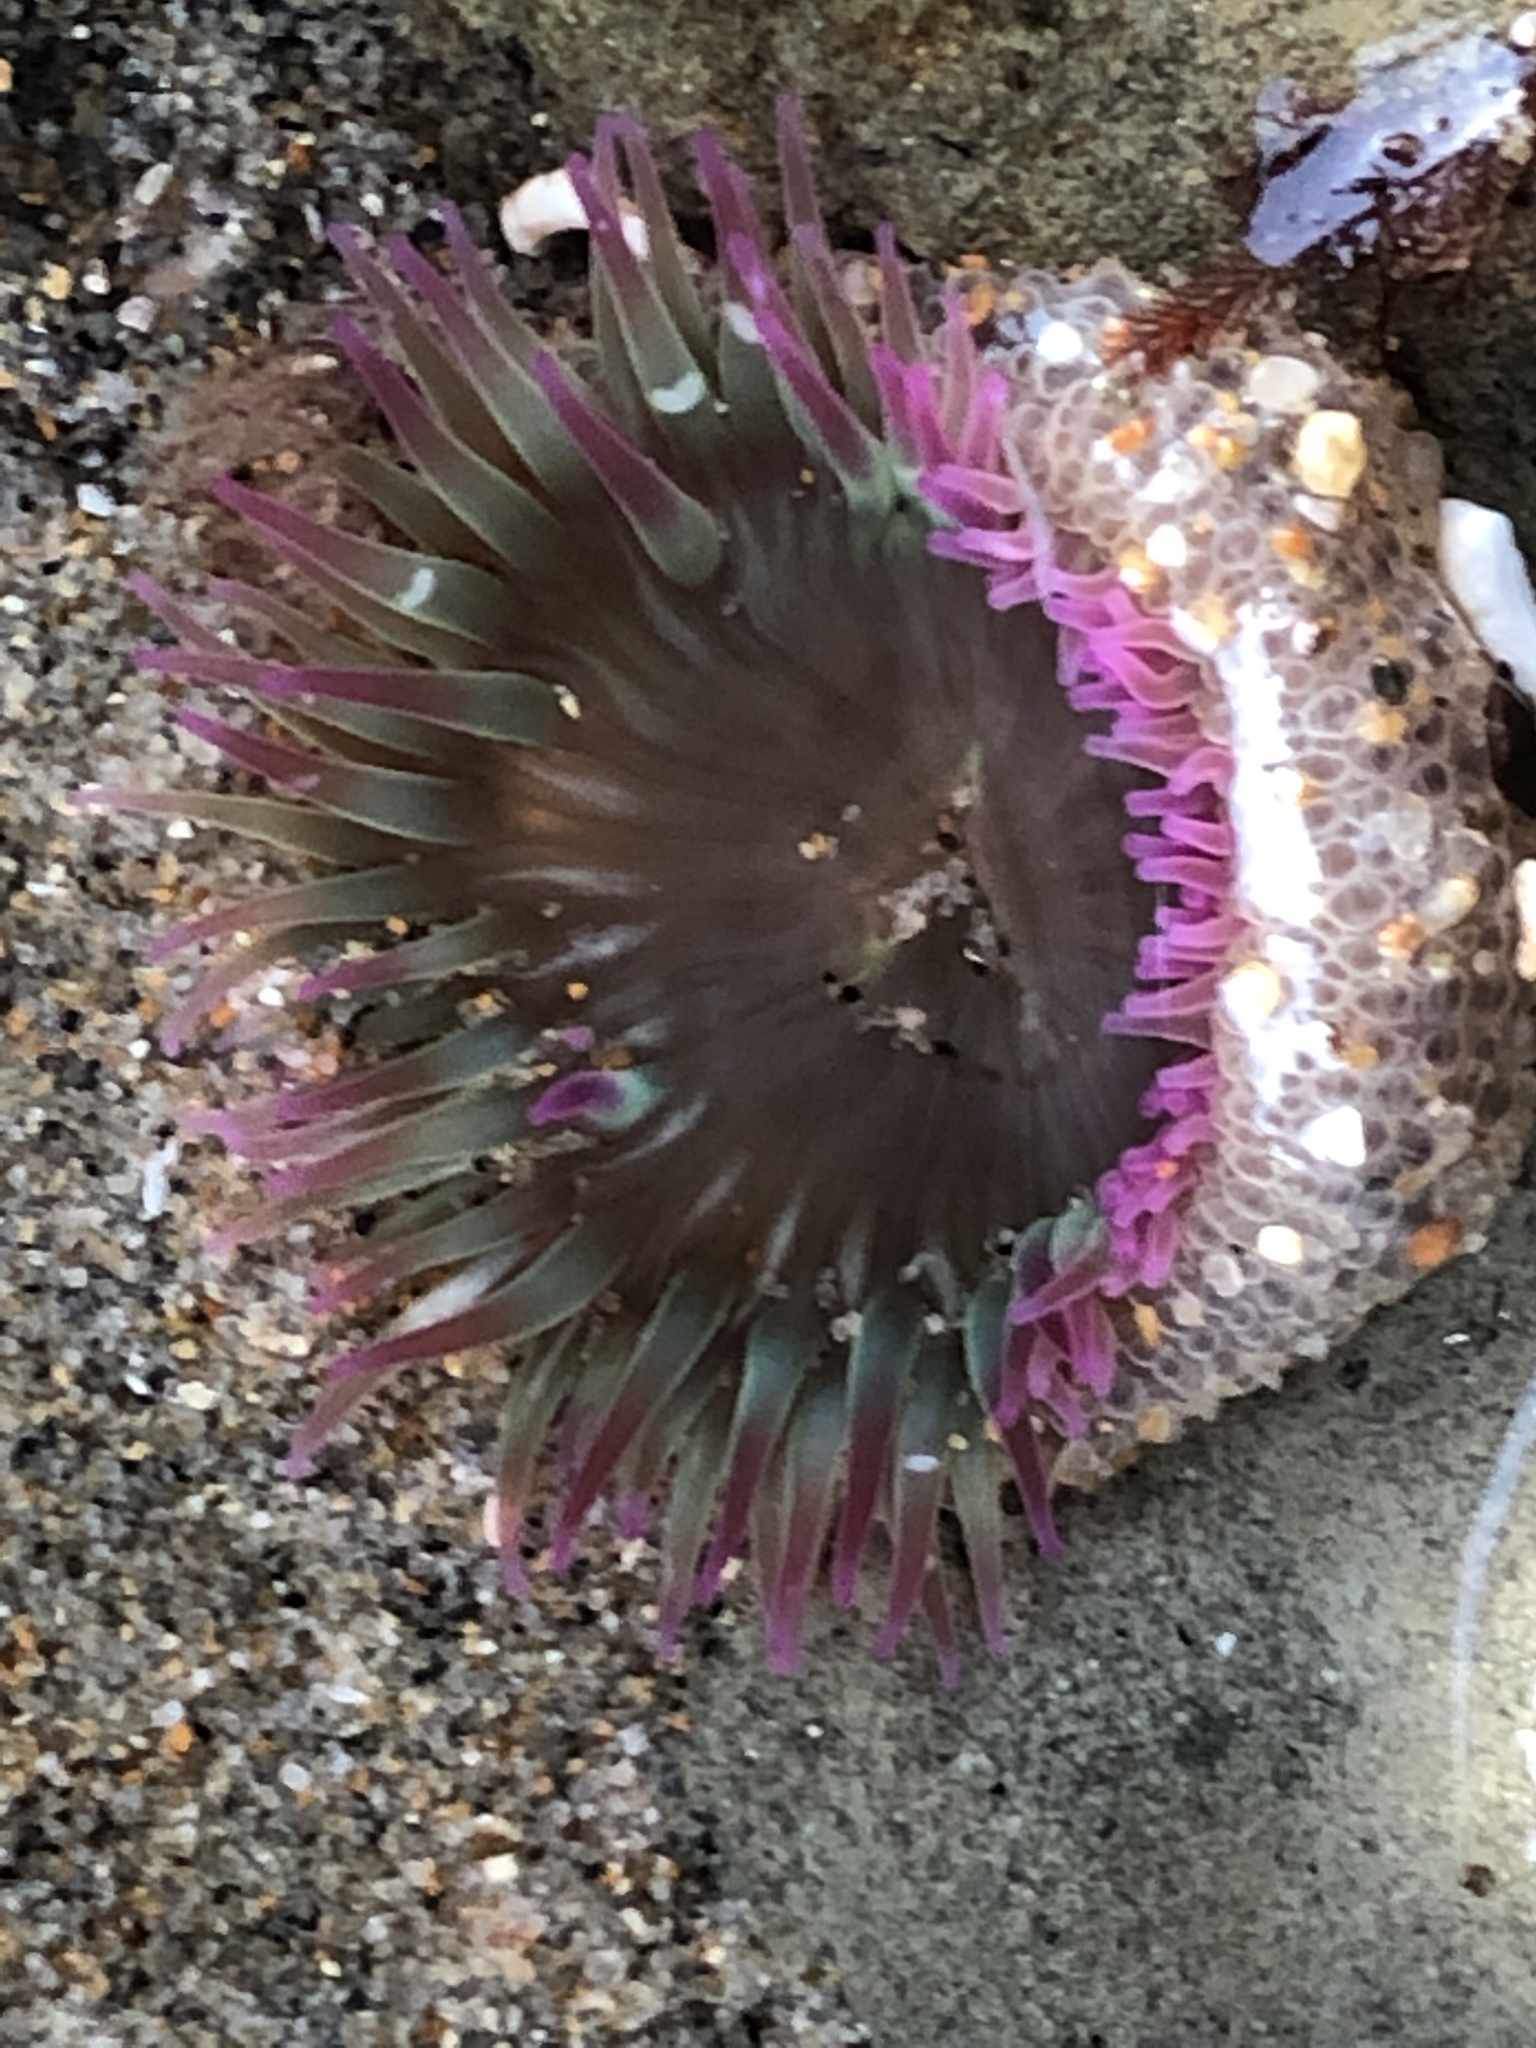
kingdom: Animalia
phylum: Cnidaria
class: Anthozoa
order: Actiniaria
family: Actiniidae
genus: Anthopleura
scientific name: Anthopleura elegantissima
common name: Clonal anemone
